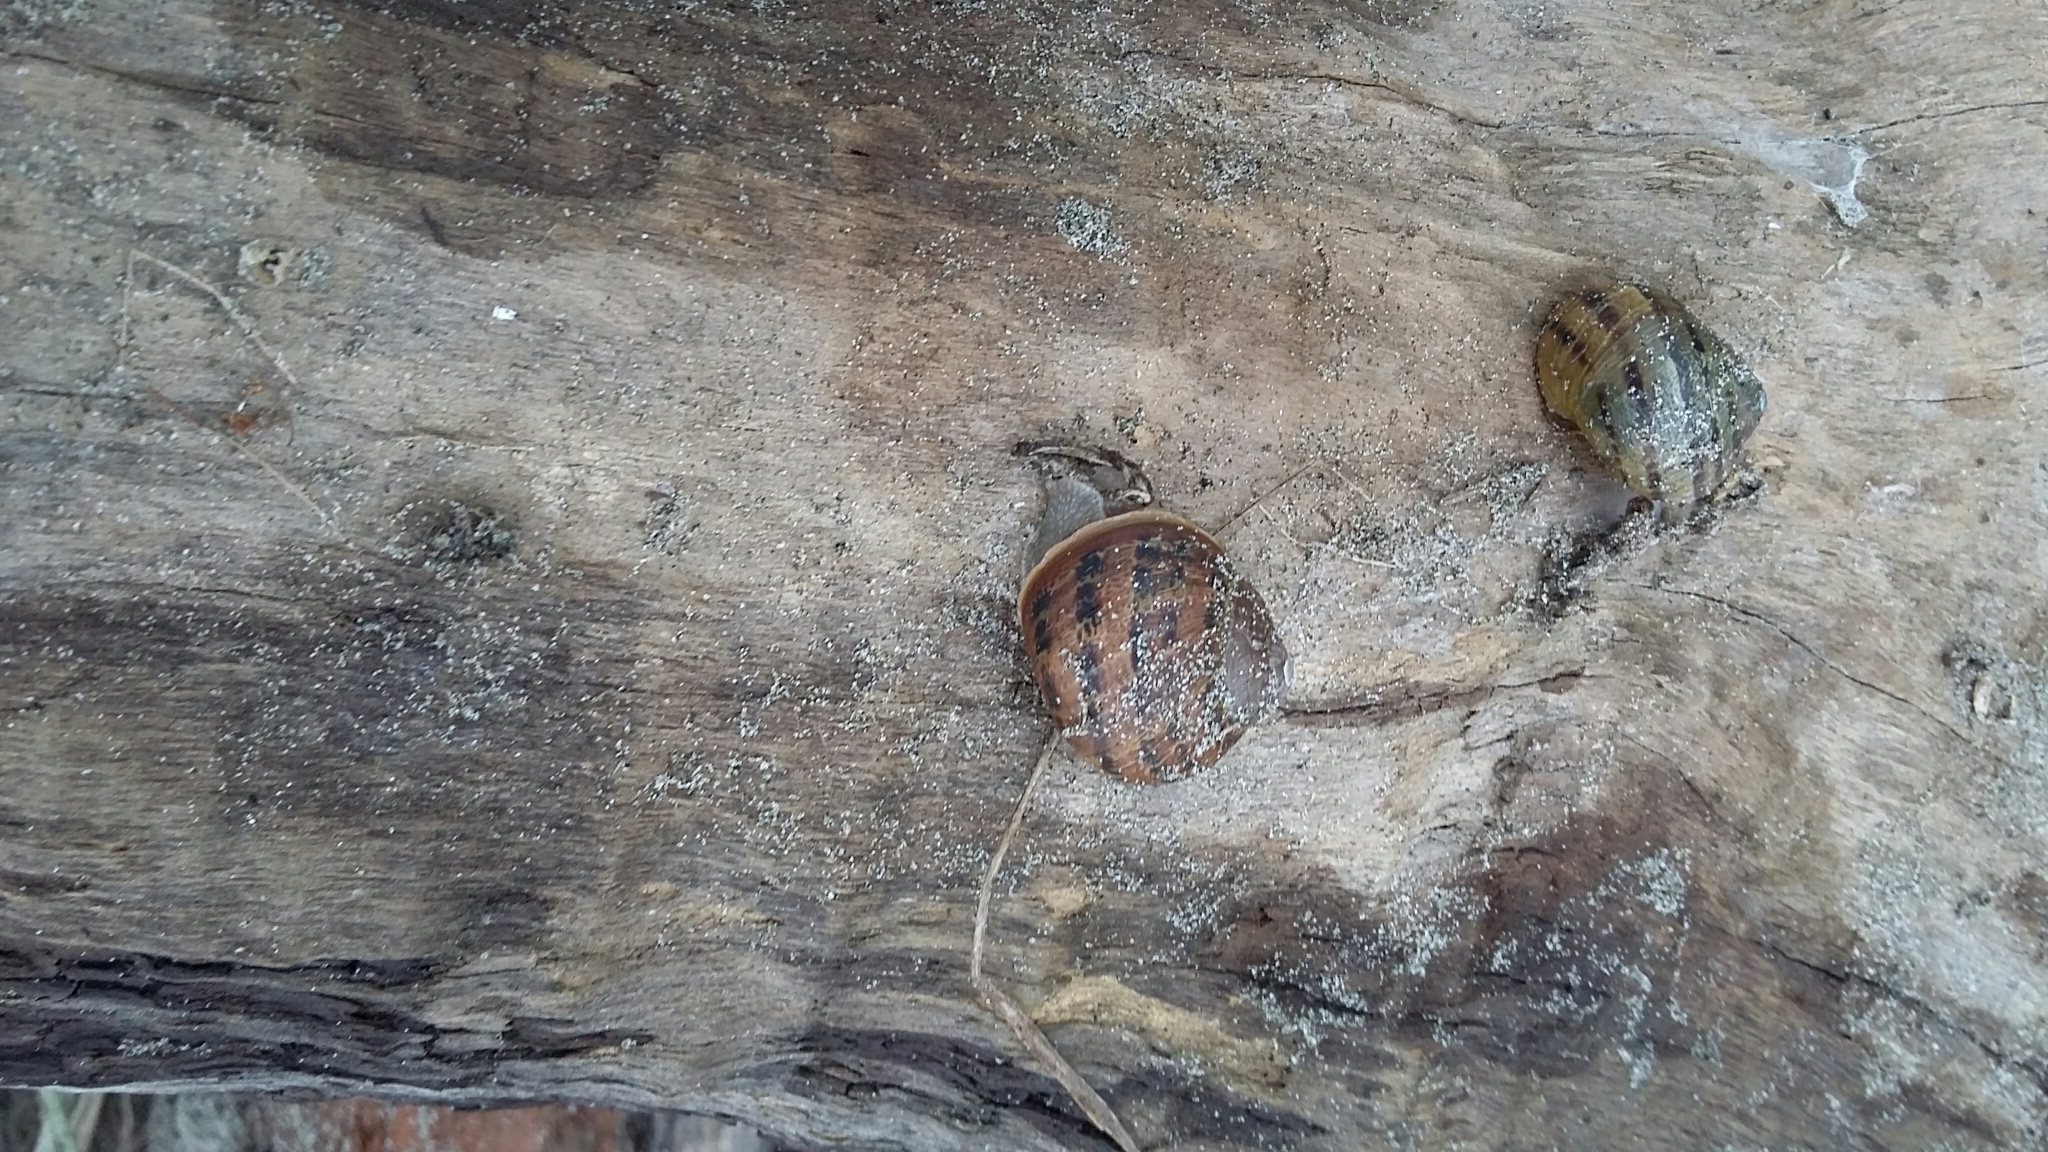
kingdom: Animalia
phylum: Mollusca
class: Gastropoda
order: Stylommatophora
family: Helicidae
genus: Cornu
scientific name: Cornu aspersum
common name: Brown garden snail
